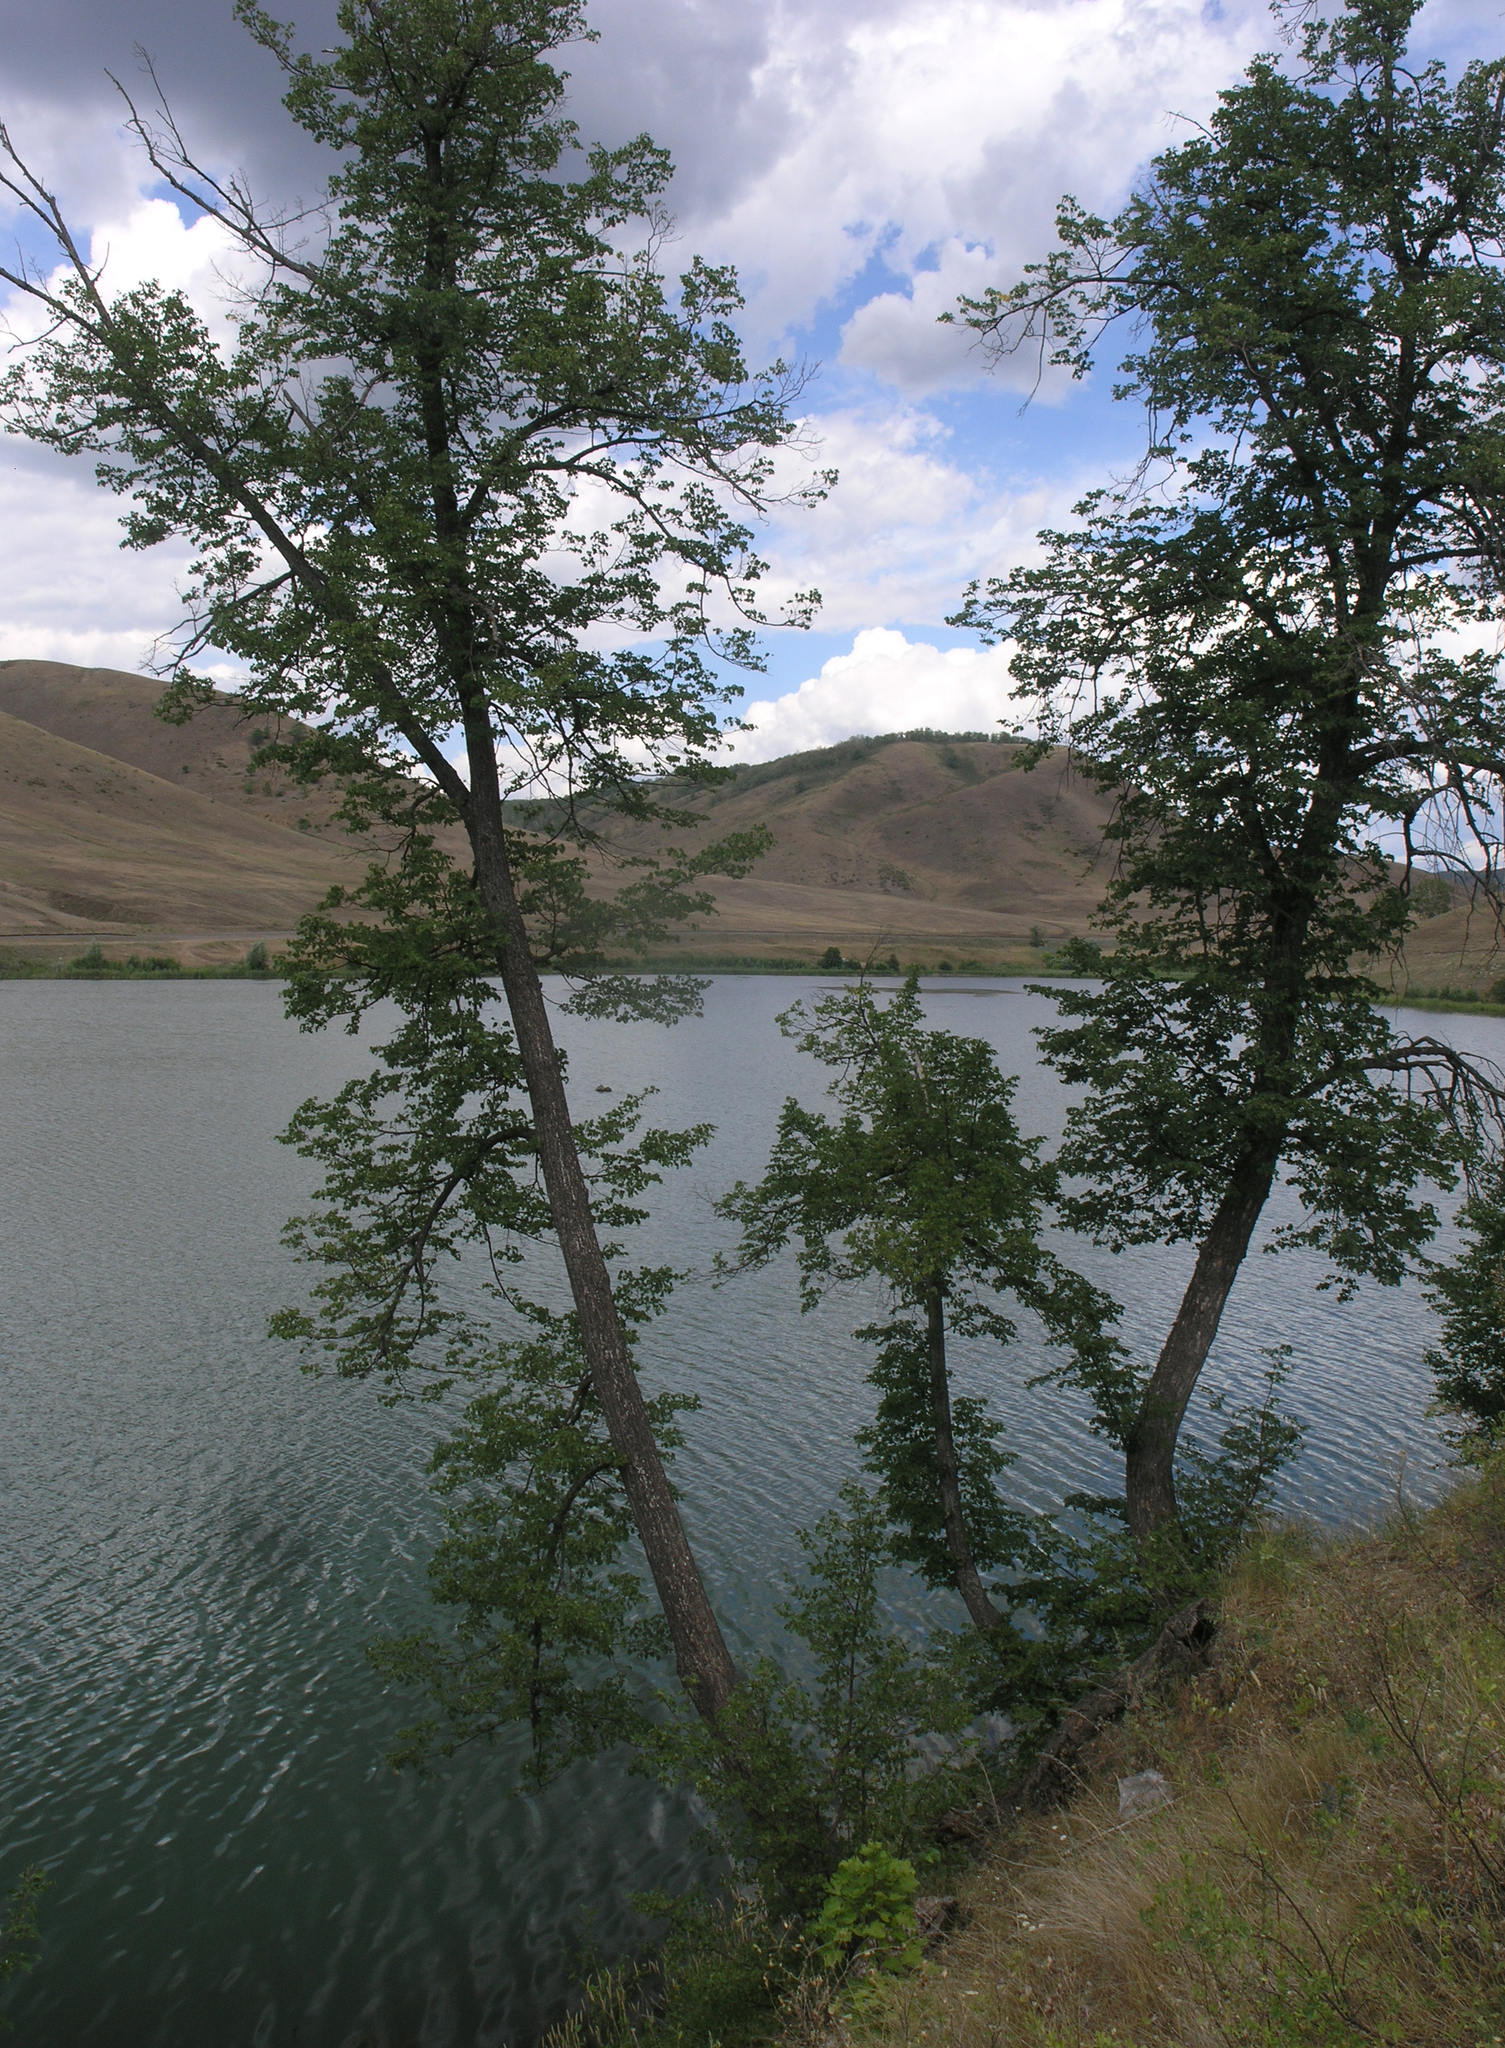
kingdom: Plantae
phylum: Tracheophyta
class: Magnoliopsida
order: Malvales
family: Malvaceae
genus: Tilia
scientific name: Tilia cordata
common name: Small-leaved lime
